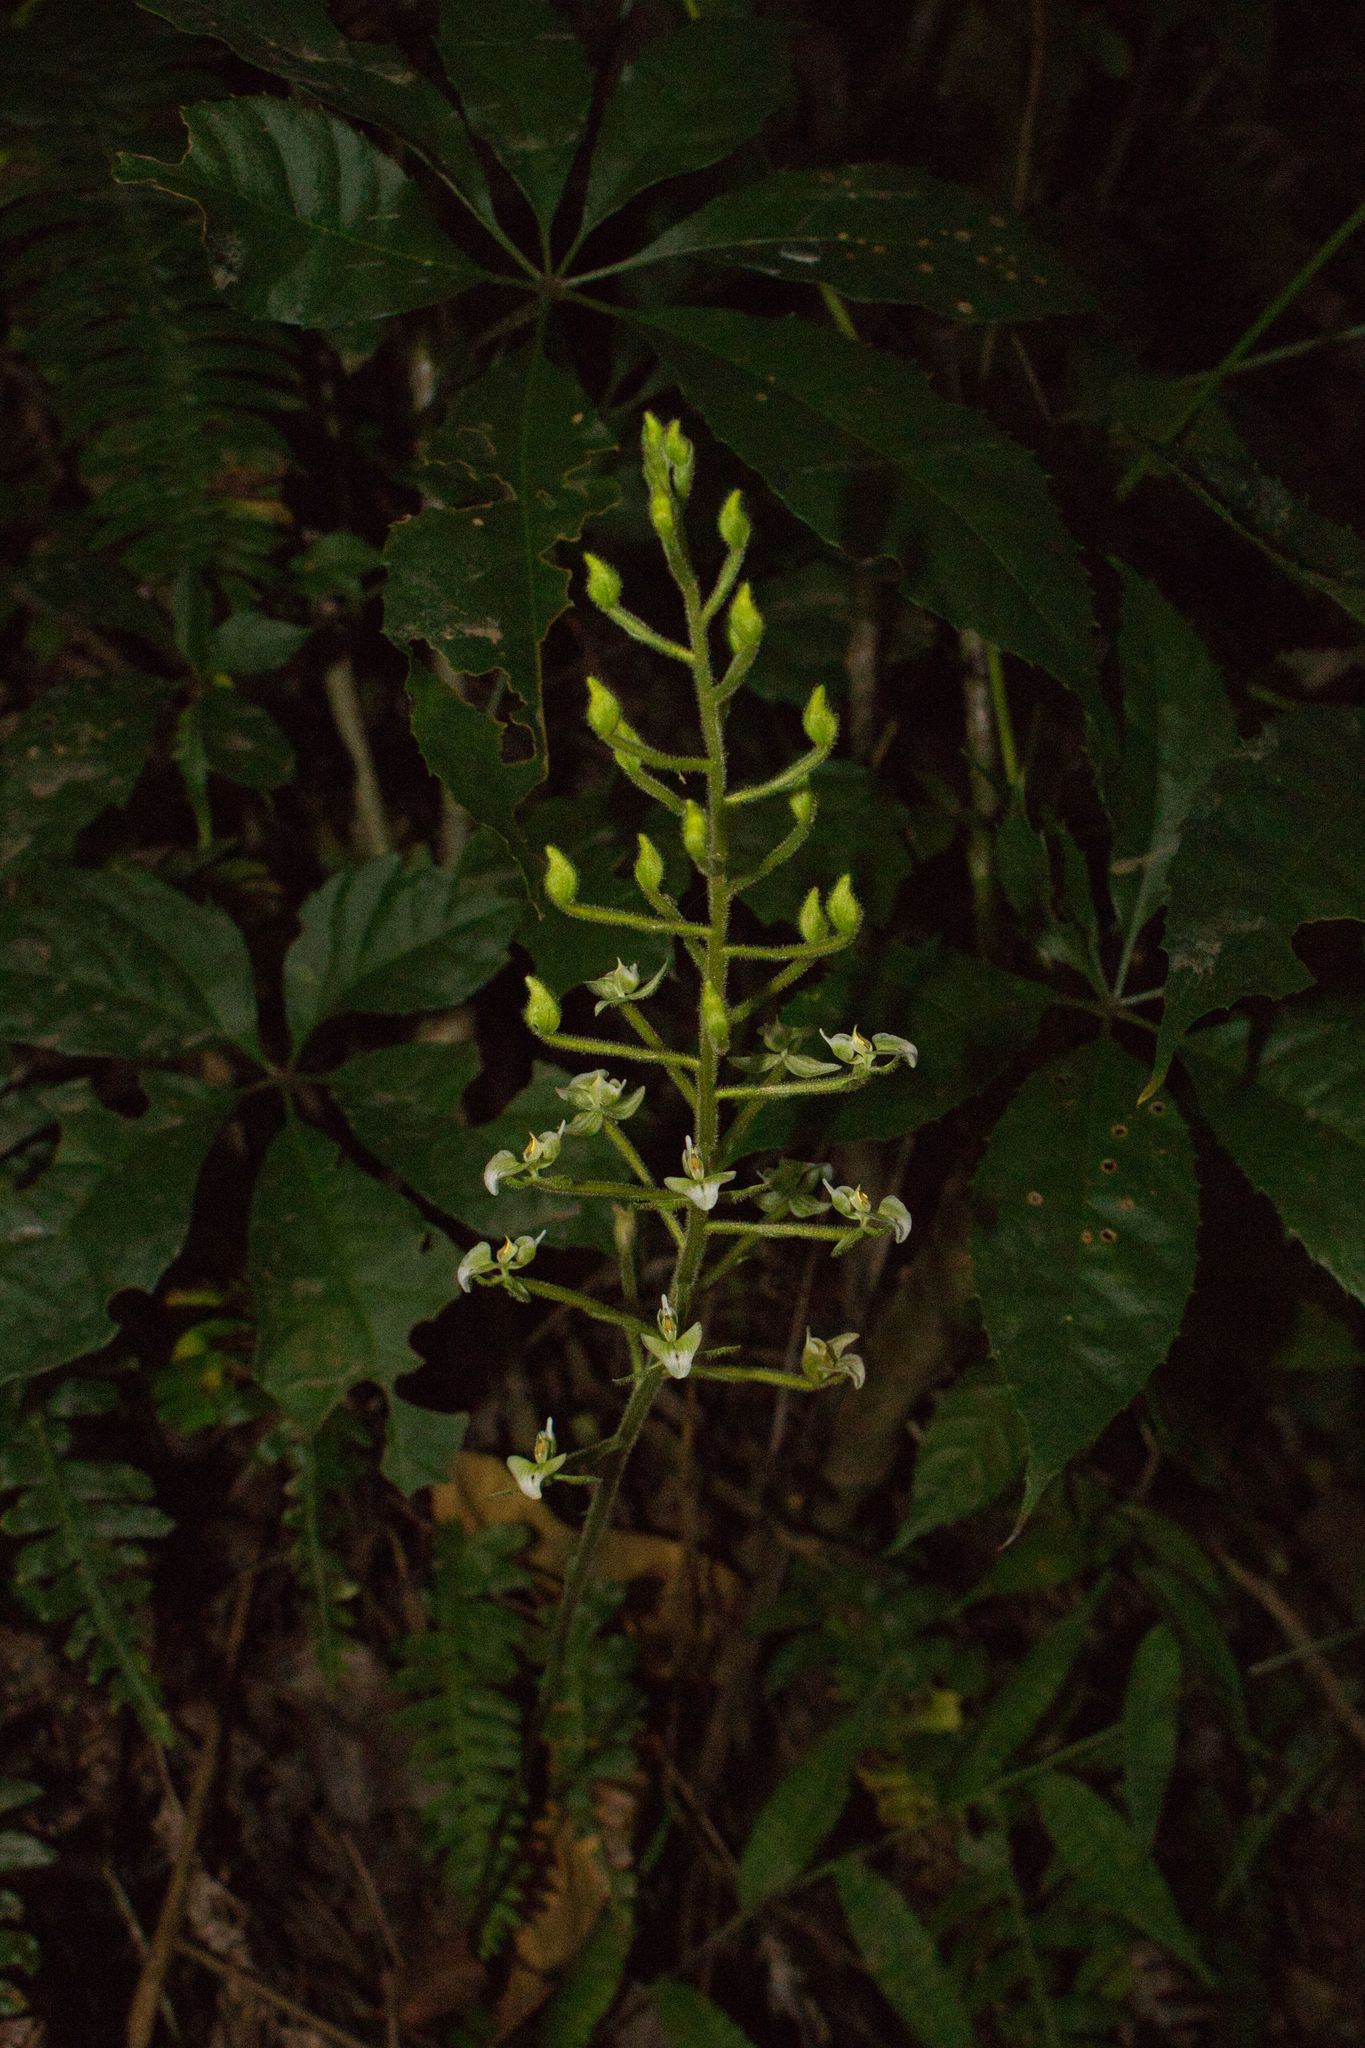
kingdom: Plantae
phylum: Tracheophyta
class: Liliopsida
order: Asparagales
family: Orchidaceae
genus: Ponthieva
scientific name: Ponthieva racemosa
